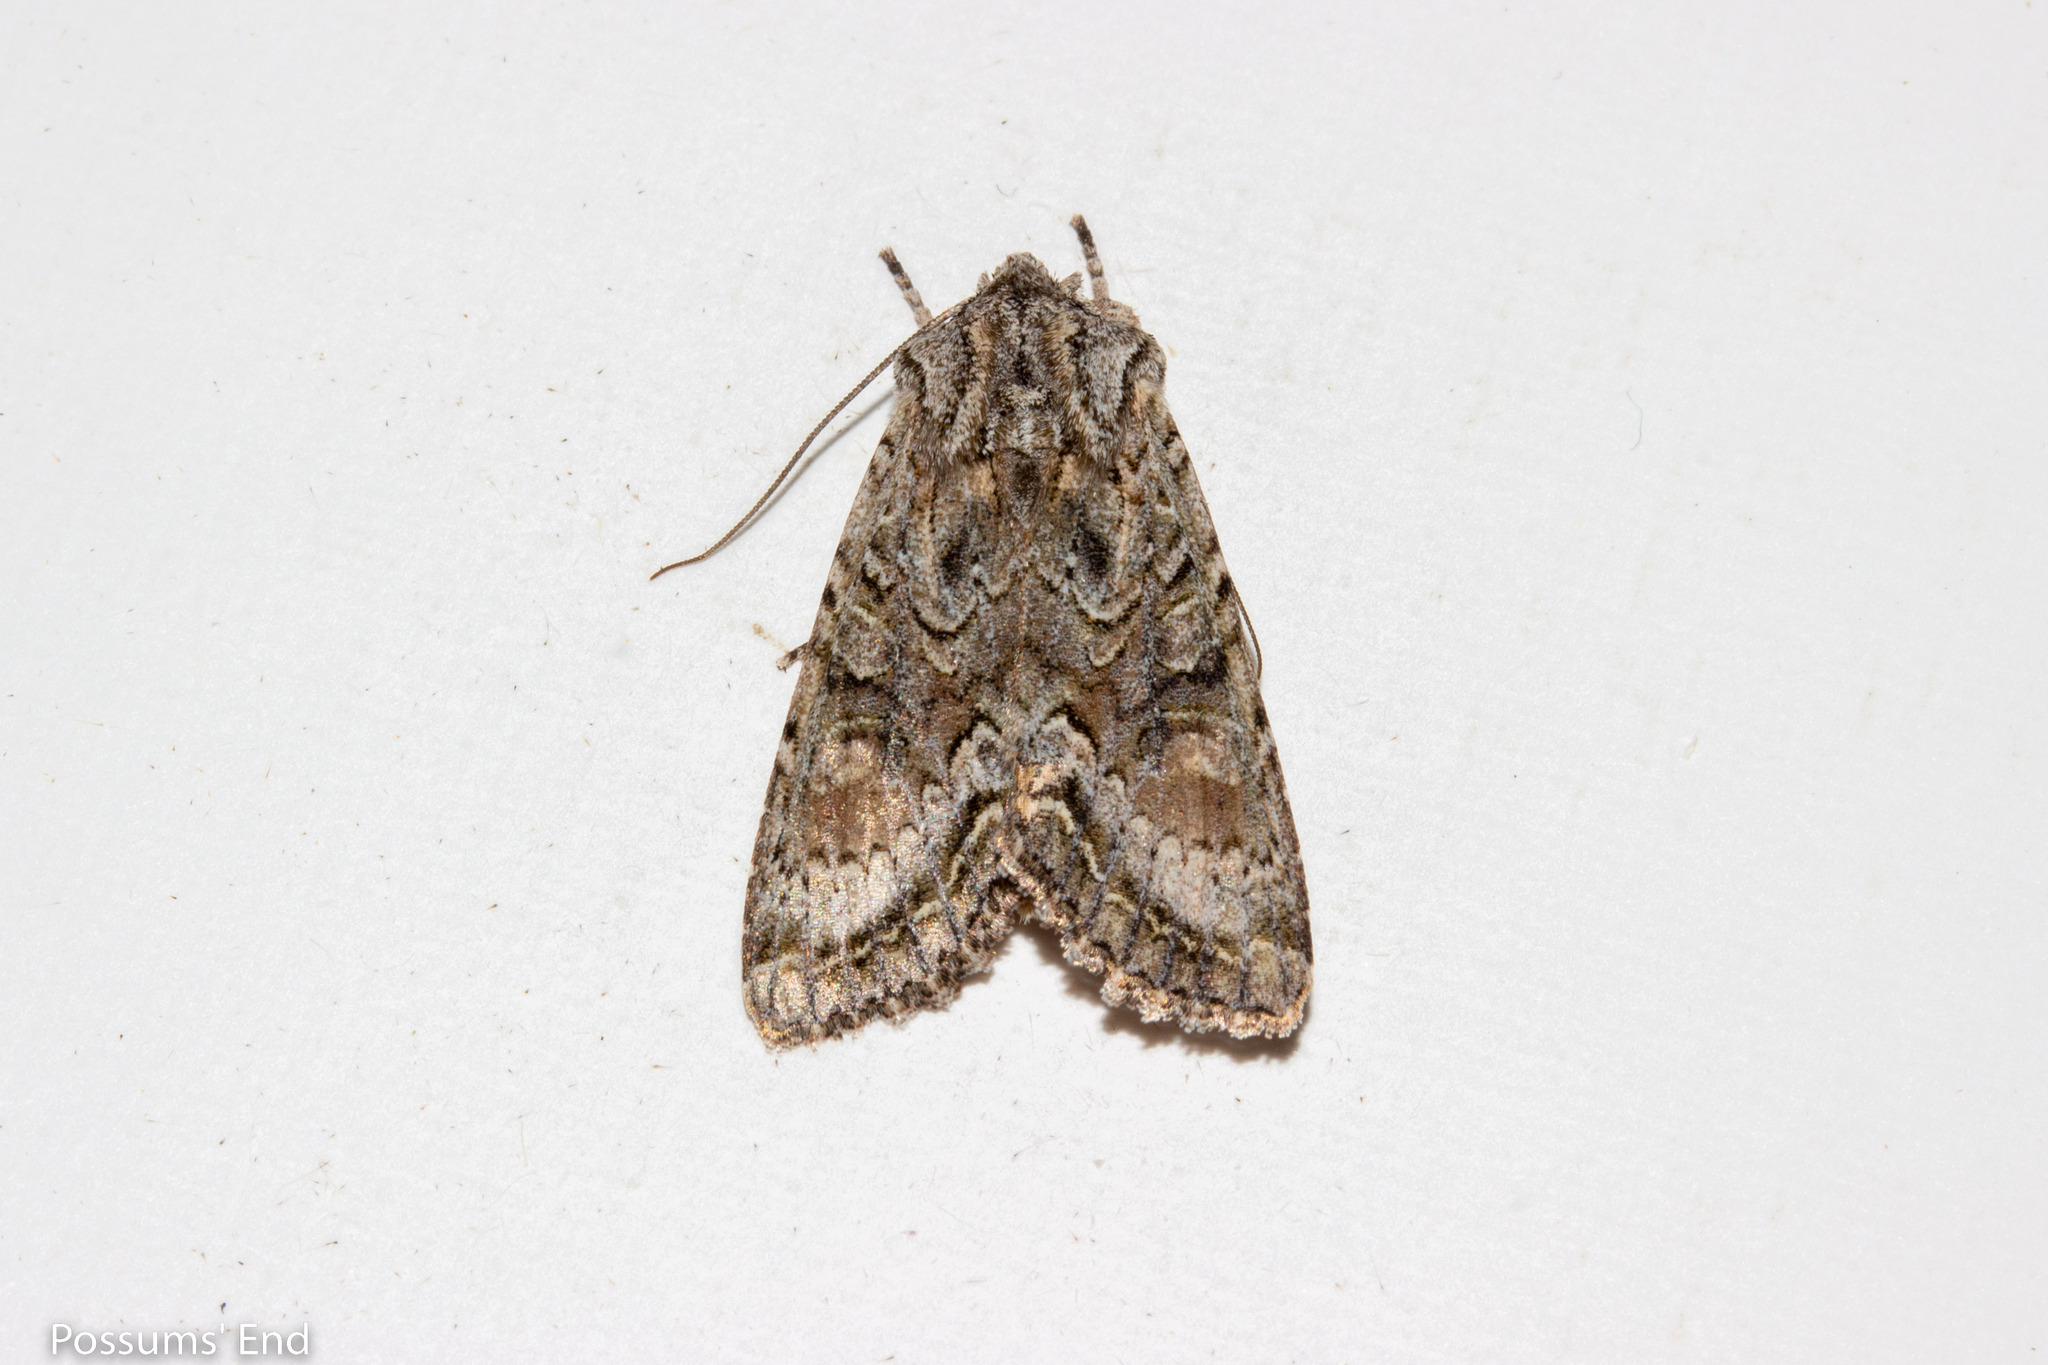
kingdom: Animalia
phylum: Arthropoda
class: Insecta
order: Lepidoptera
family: Noctuidae
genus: Ichneutica
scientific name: Ichneutica mutans
